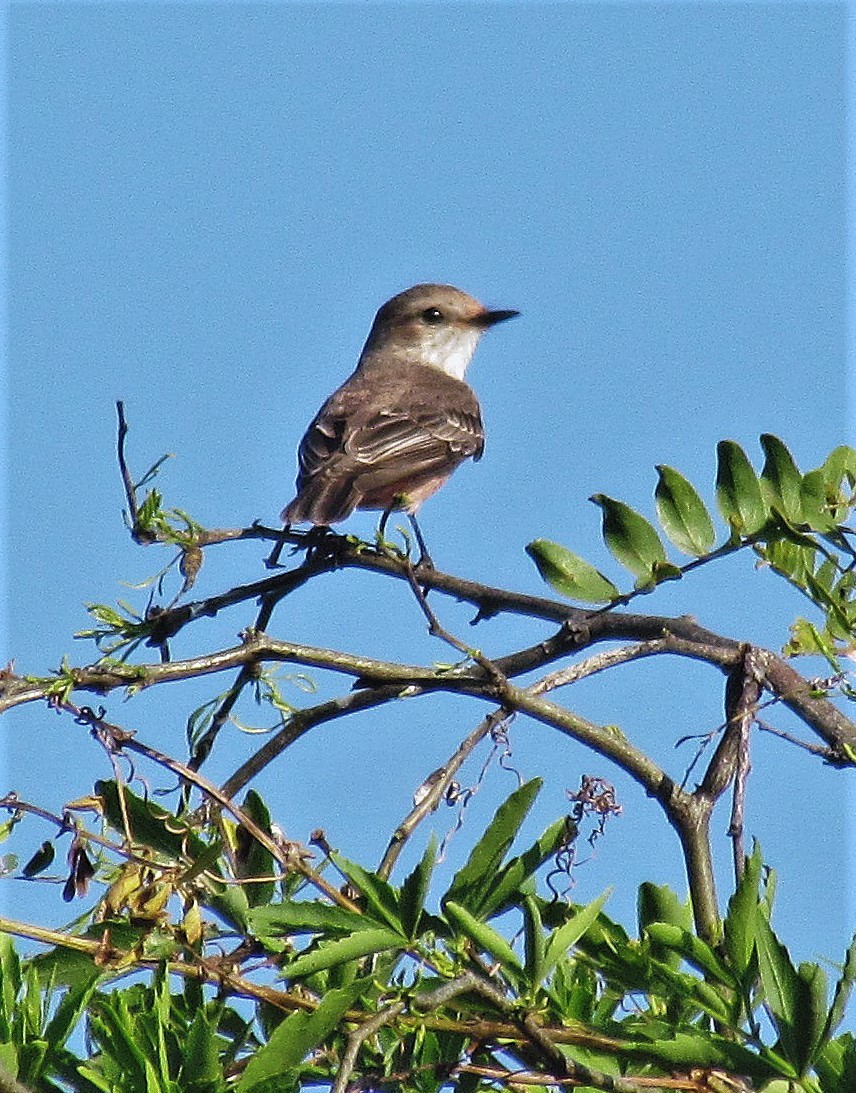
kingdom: Animalia
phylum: Chordata
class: Aves
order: Passeriformes
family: Tyrannidae
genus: Pyrocephalus
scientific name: Pyrocephalus rubinus
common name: Vermilion flycatcher
